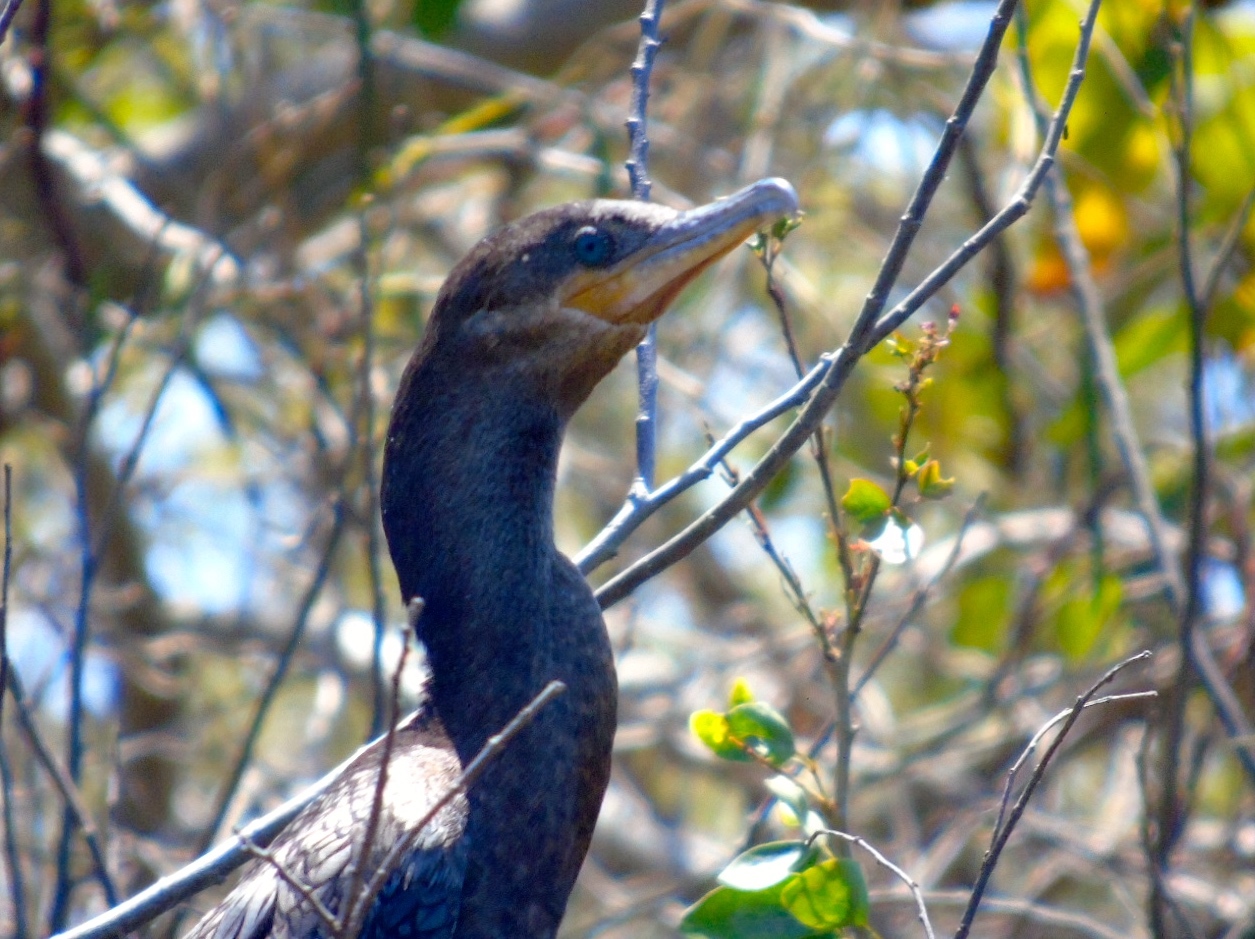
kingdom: Animalia
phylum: Chordata
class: Aves
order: Suliformes
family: Phalacrocoracidae
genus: Phalacrocorax
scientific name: Phalacrocorax brasilianus
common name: Neotropic cormorant
